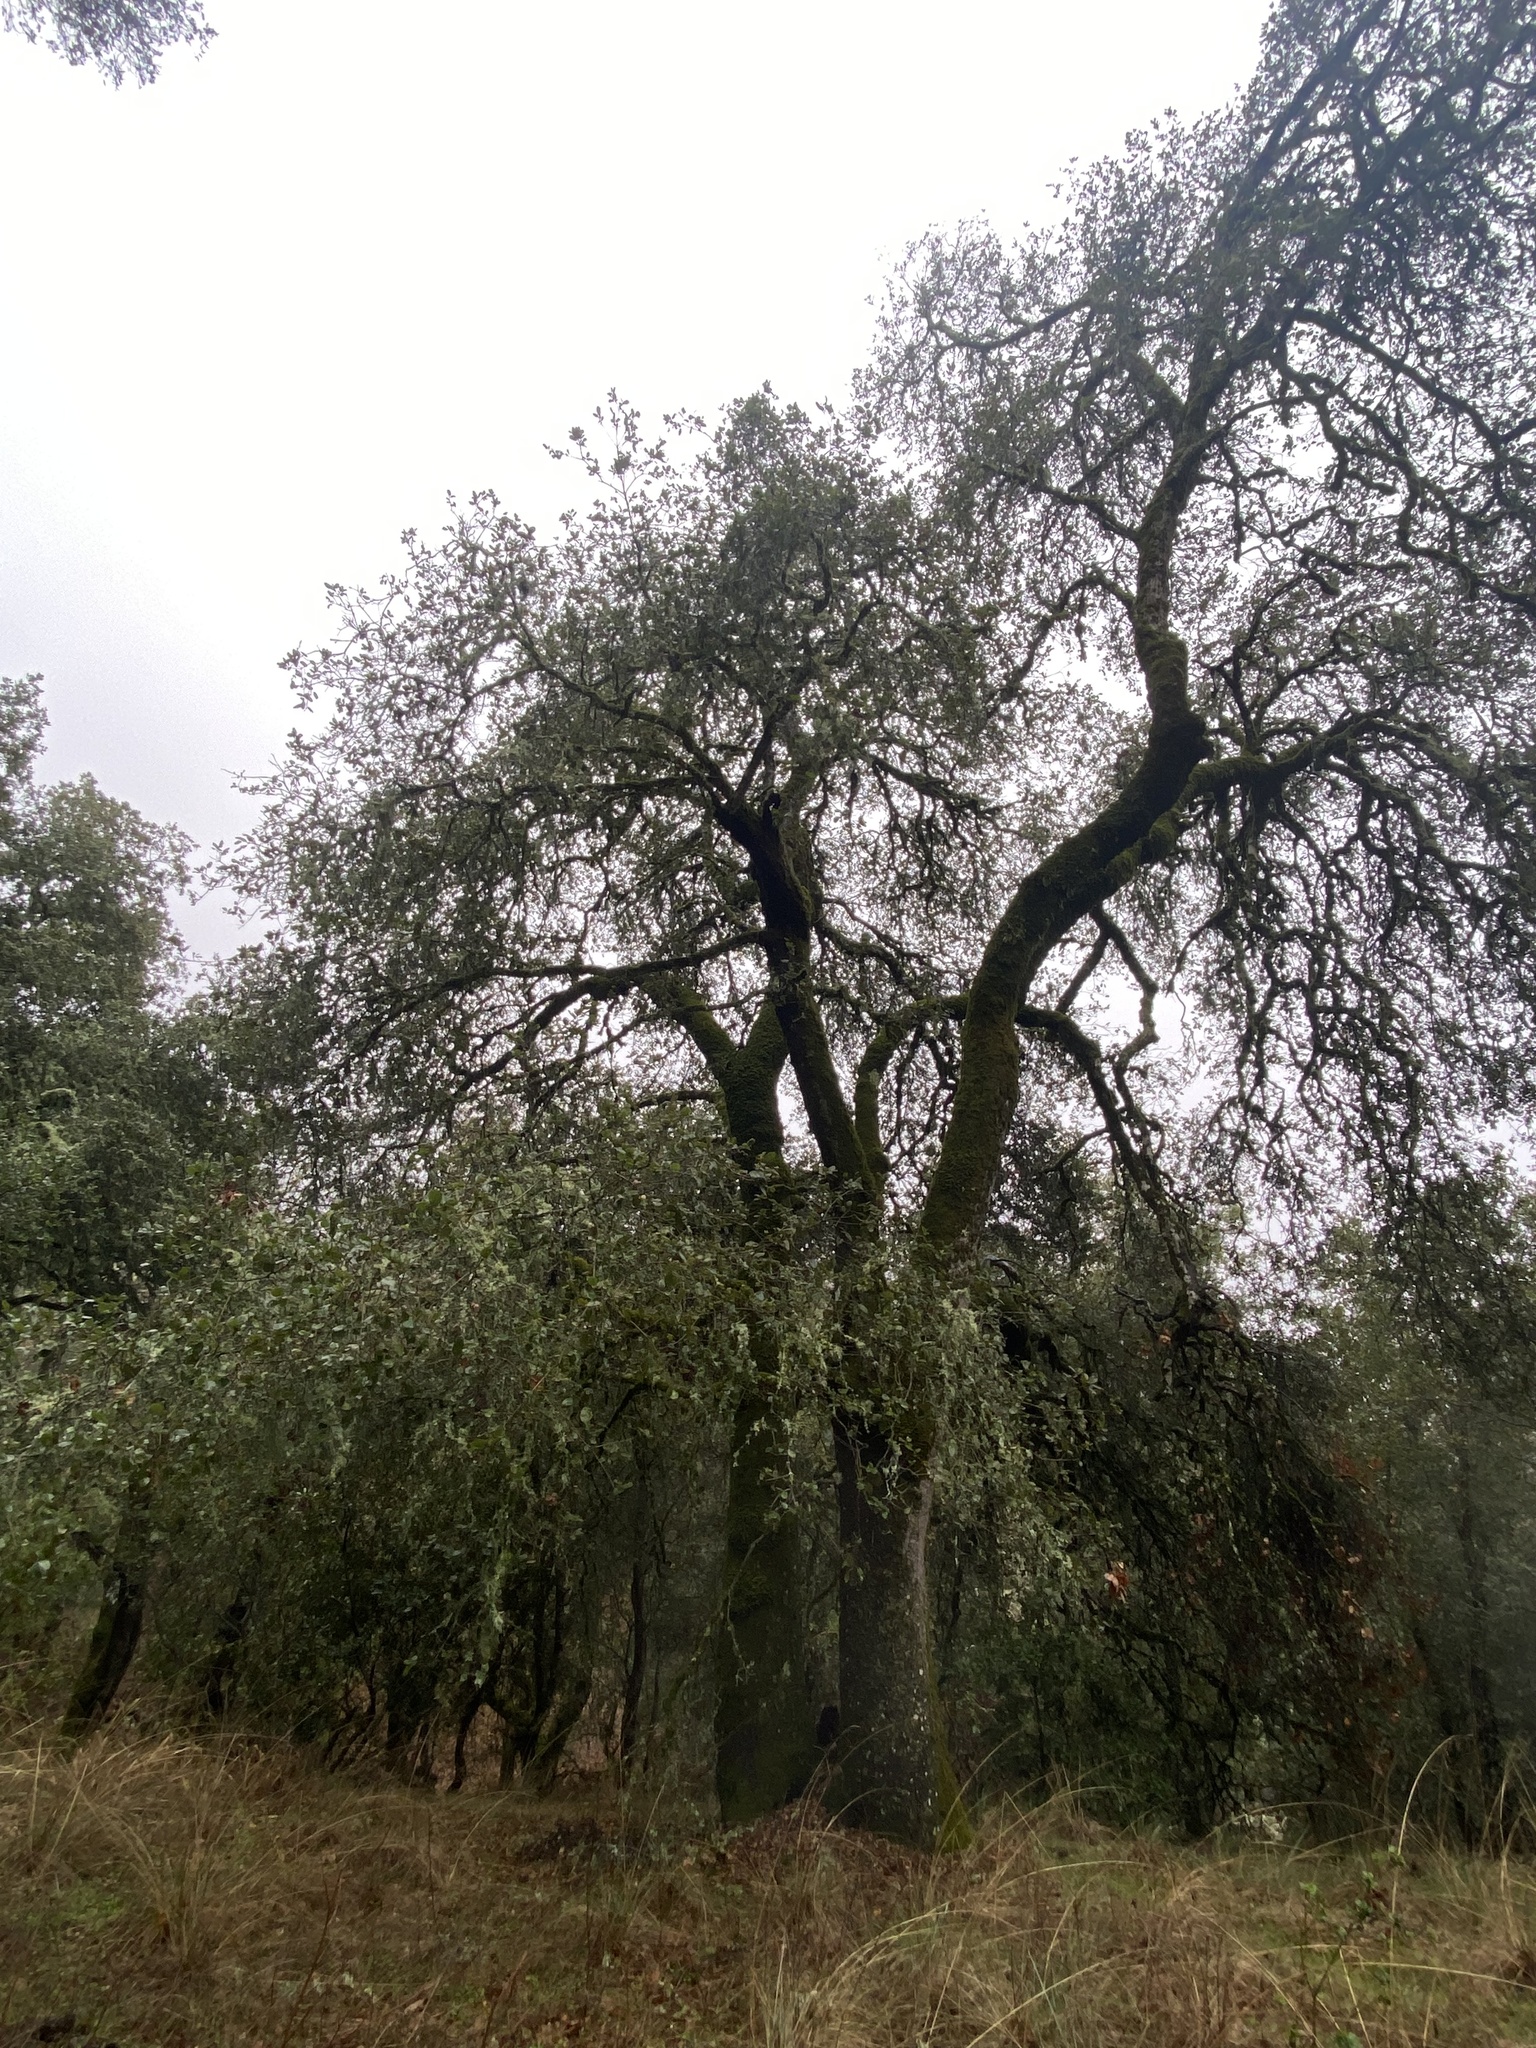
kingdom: Plantae
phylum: Tracheophyta
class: Magnoliopsida
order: Fagales
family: Fagaceae
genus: Quercus
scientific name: Quercus agrifolia
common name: California live oak
